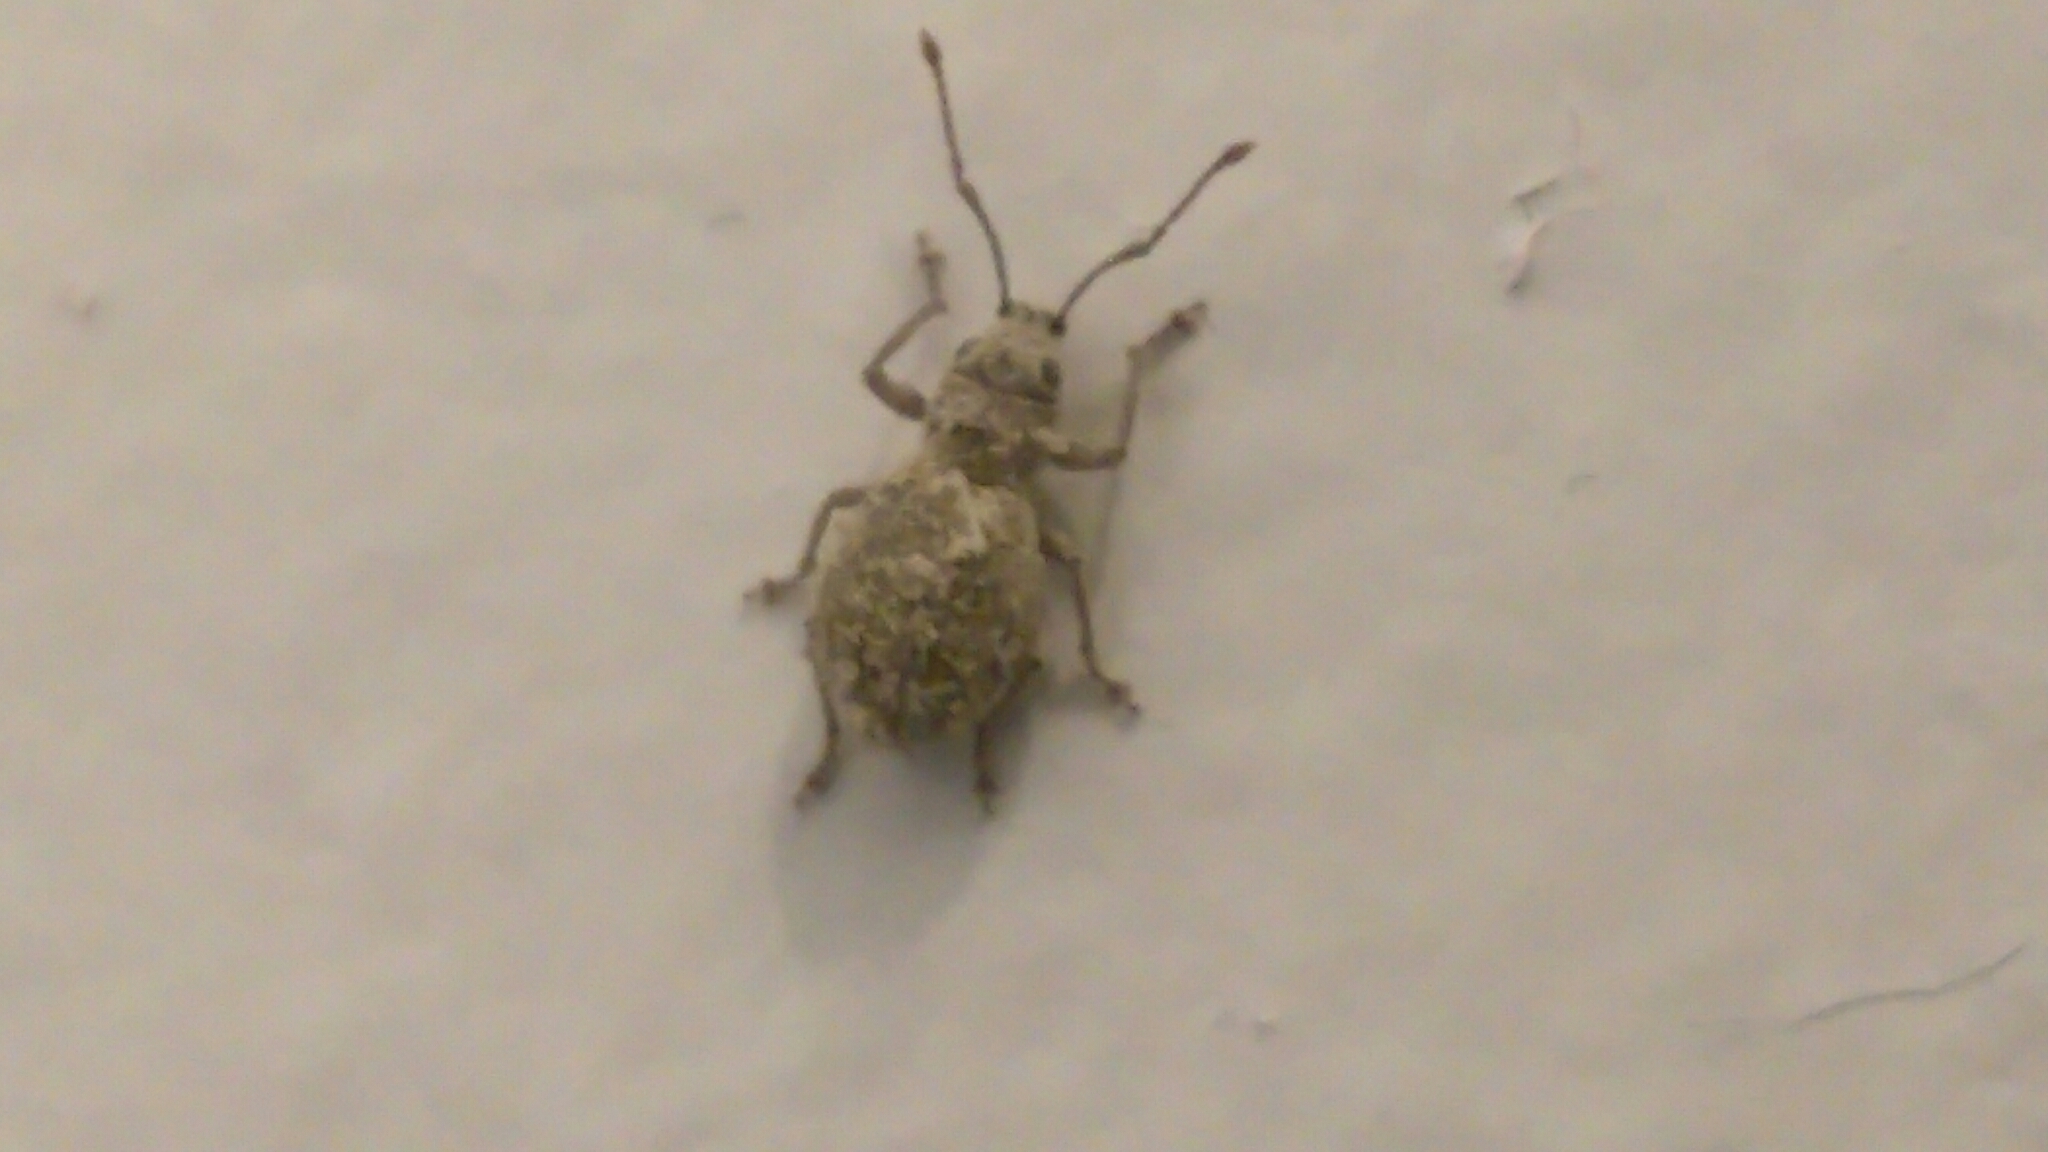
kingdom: Animalia
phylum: Arthropoda
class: Insecta
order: Coleoptera
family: Curculionidae
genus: Calomycterus
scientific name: Calomycterus setarius
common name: Weevil
